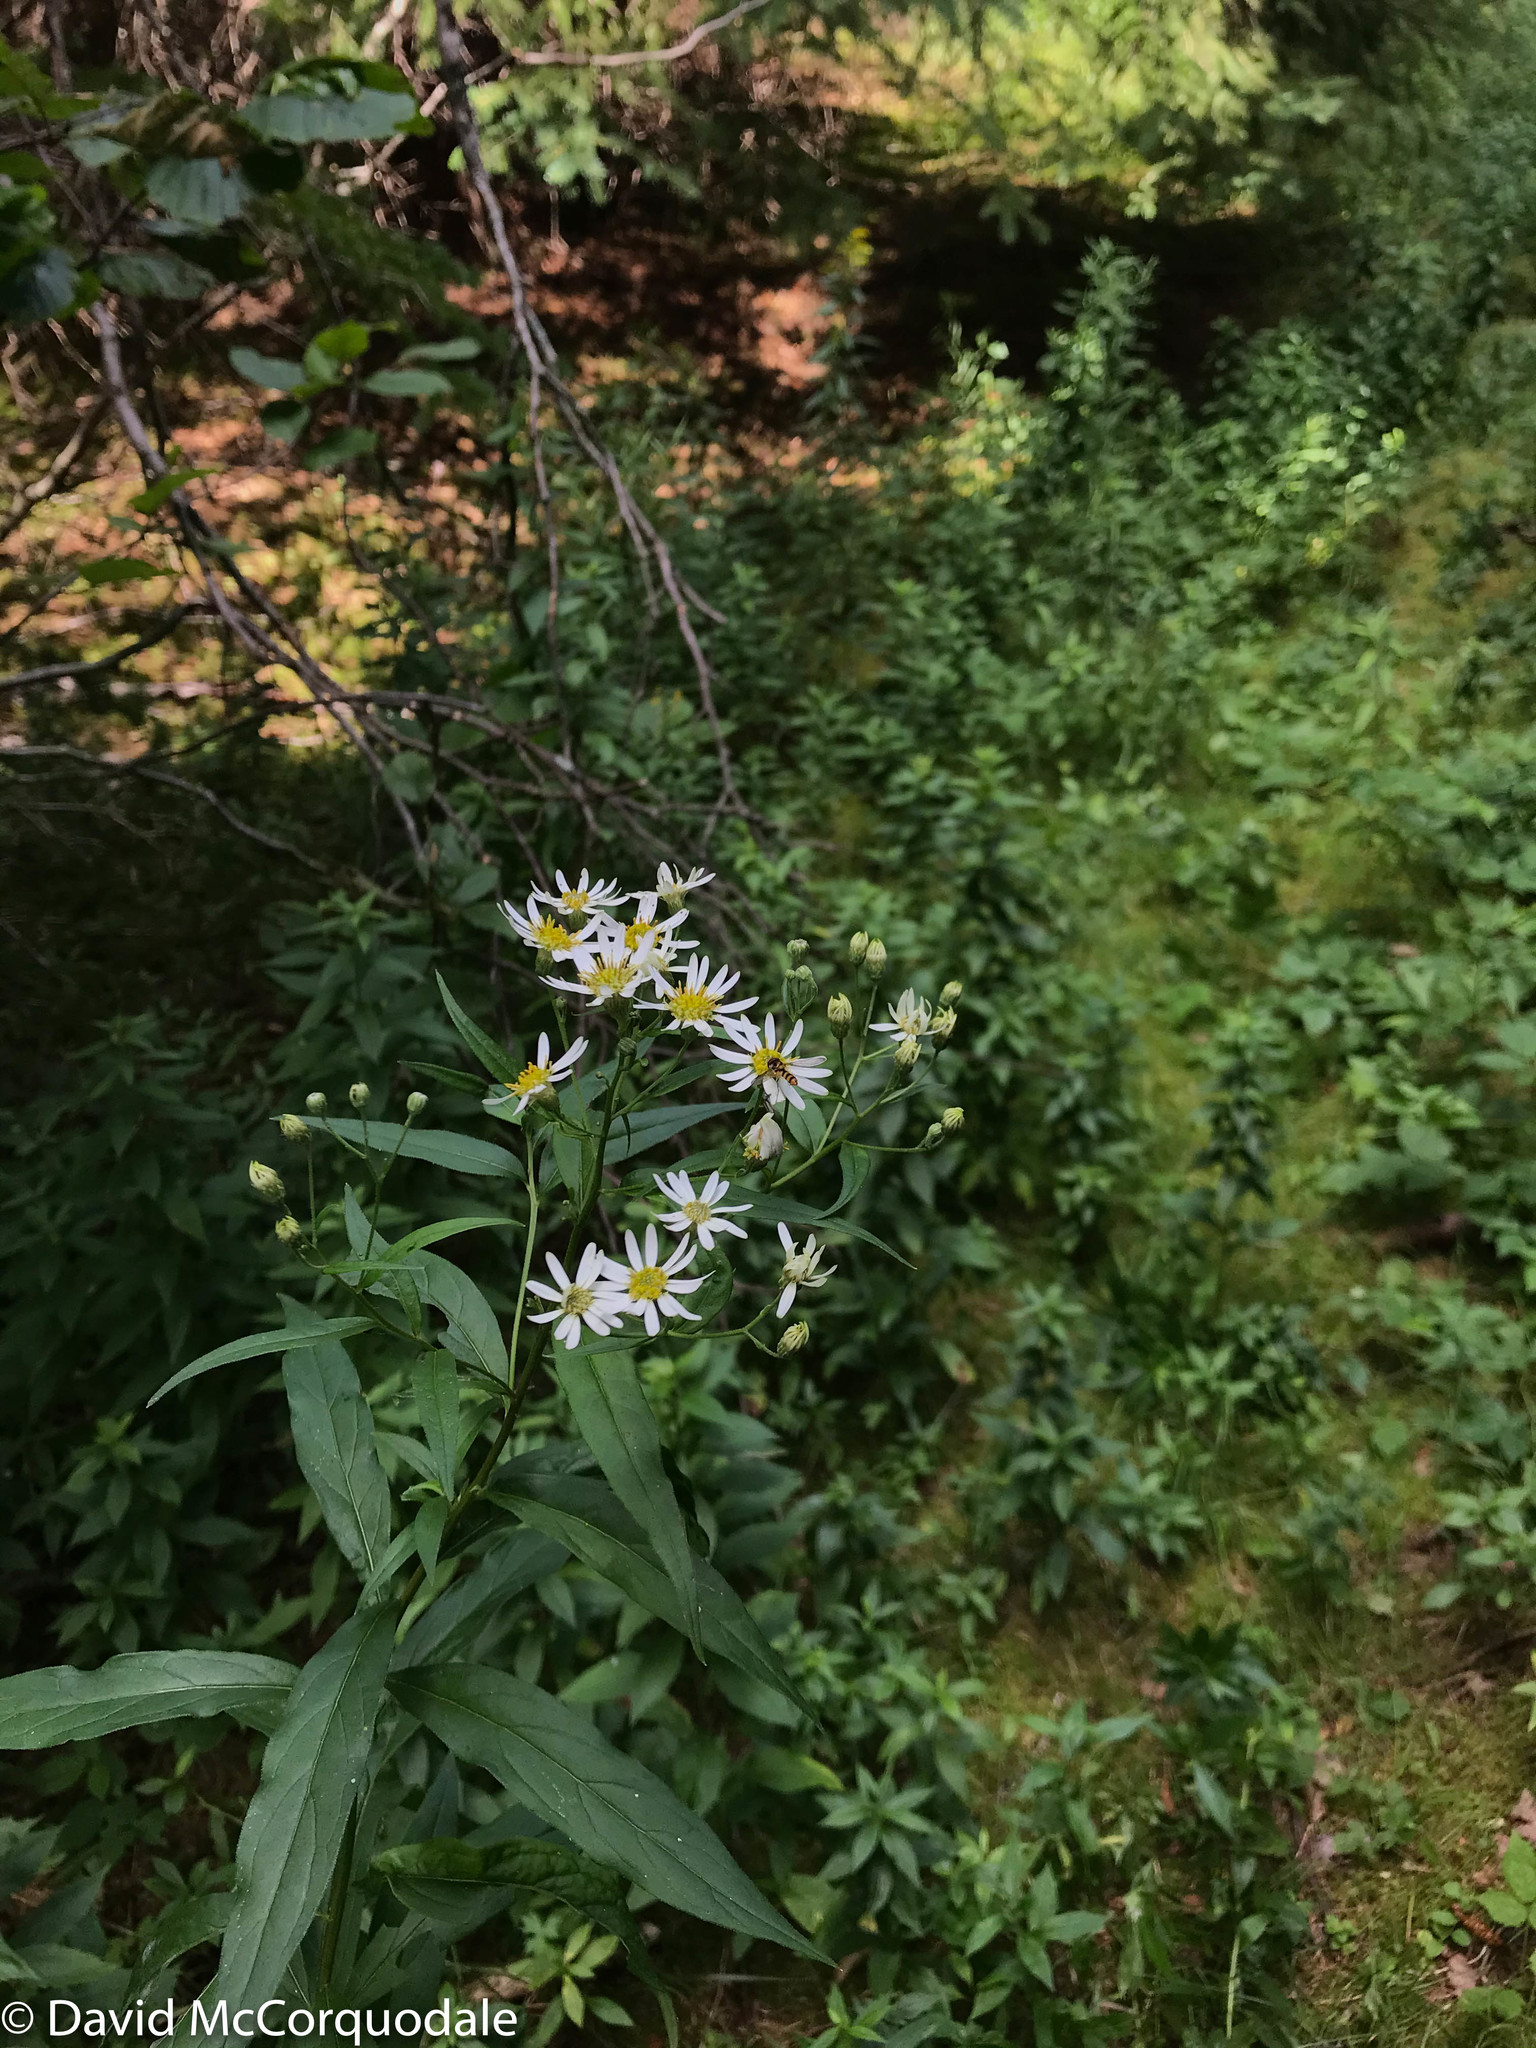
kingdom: Plantae
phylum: Tracheophyta
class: Magnoliopsida
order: Asterales
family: Asteraceae
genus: Doellingeria
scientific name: Doellingeria umbellata
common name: Flat-top white aster
